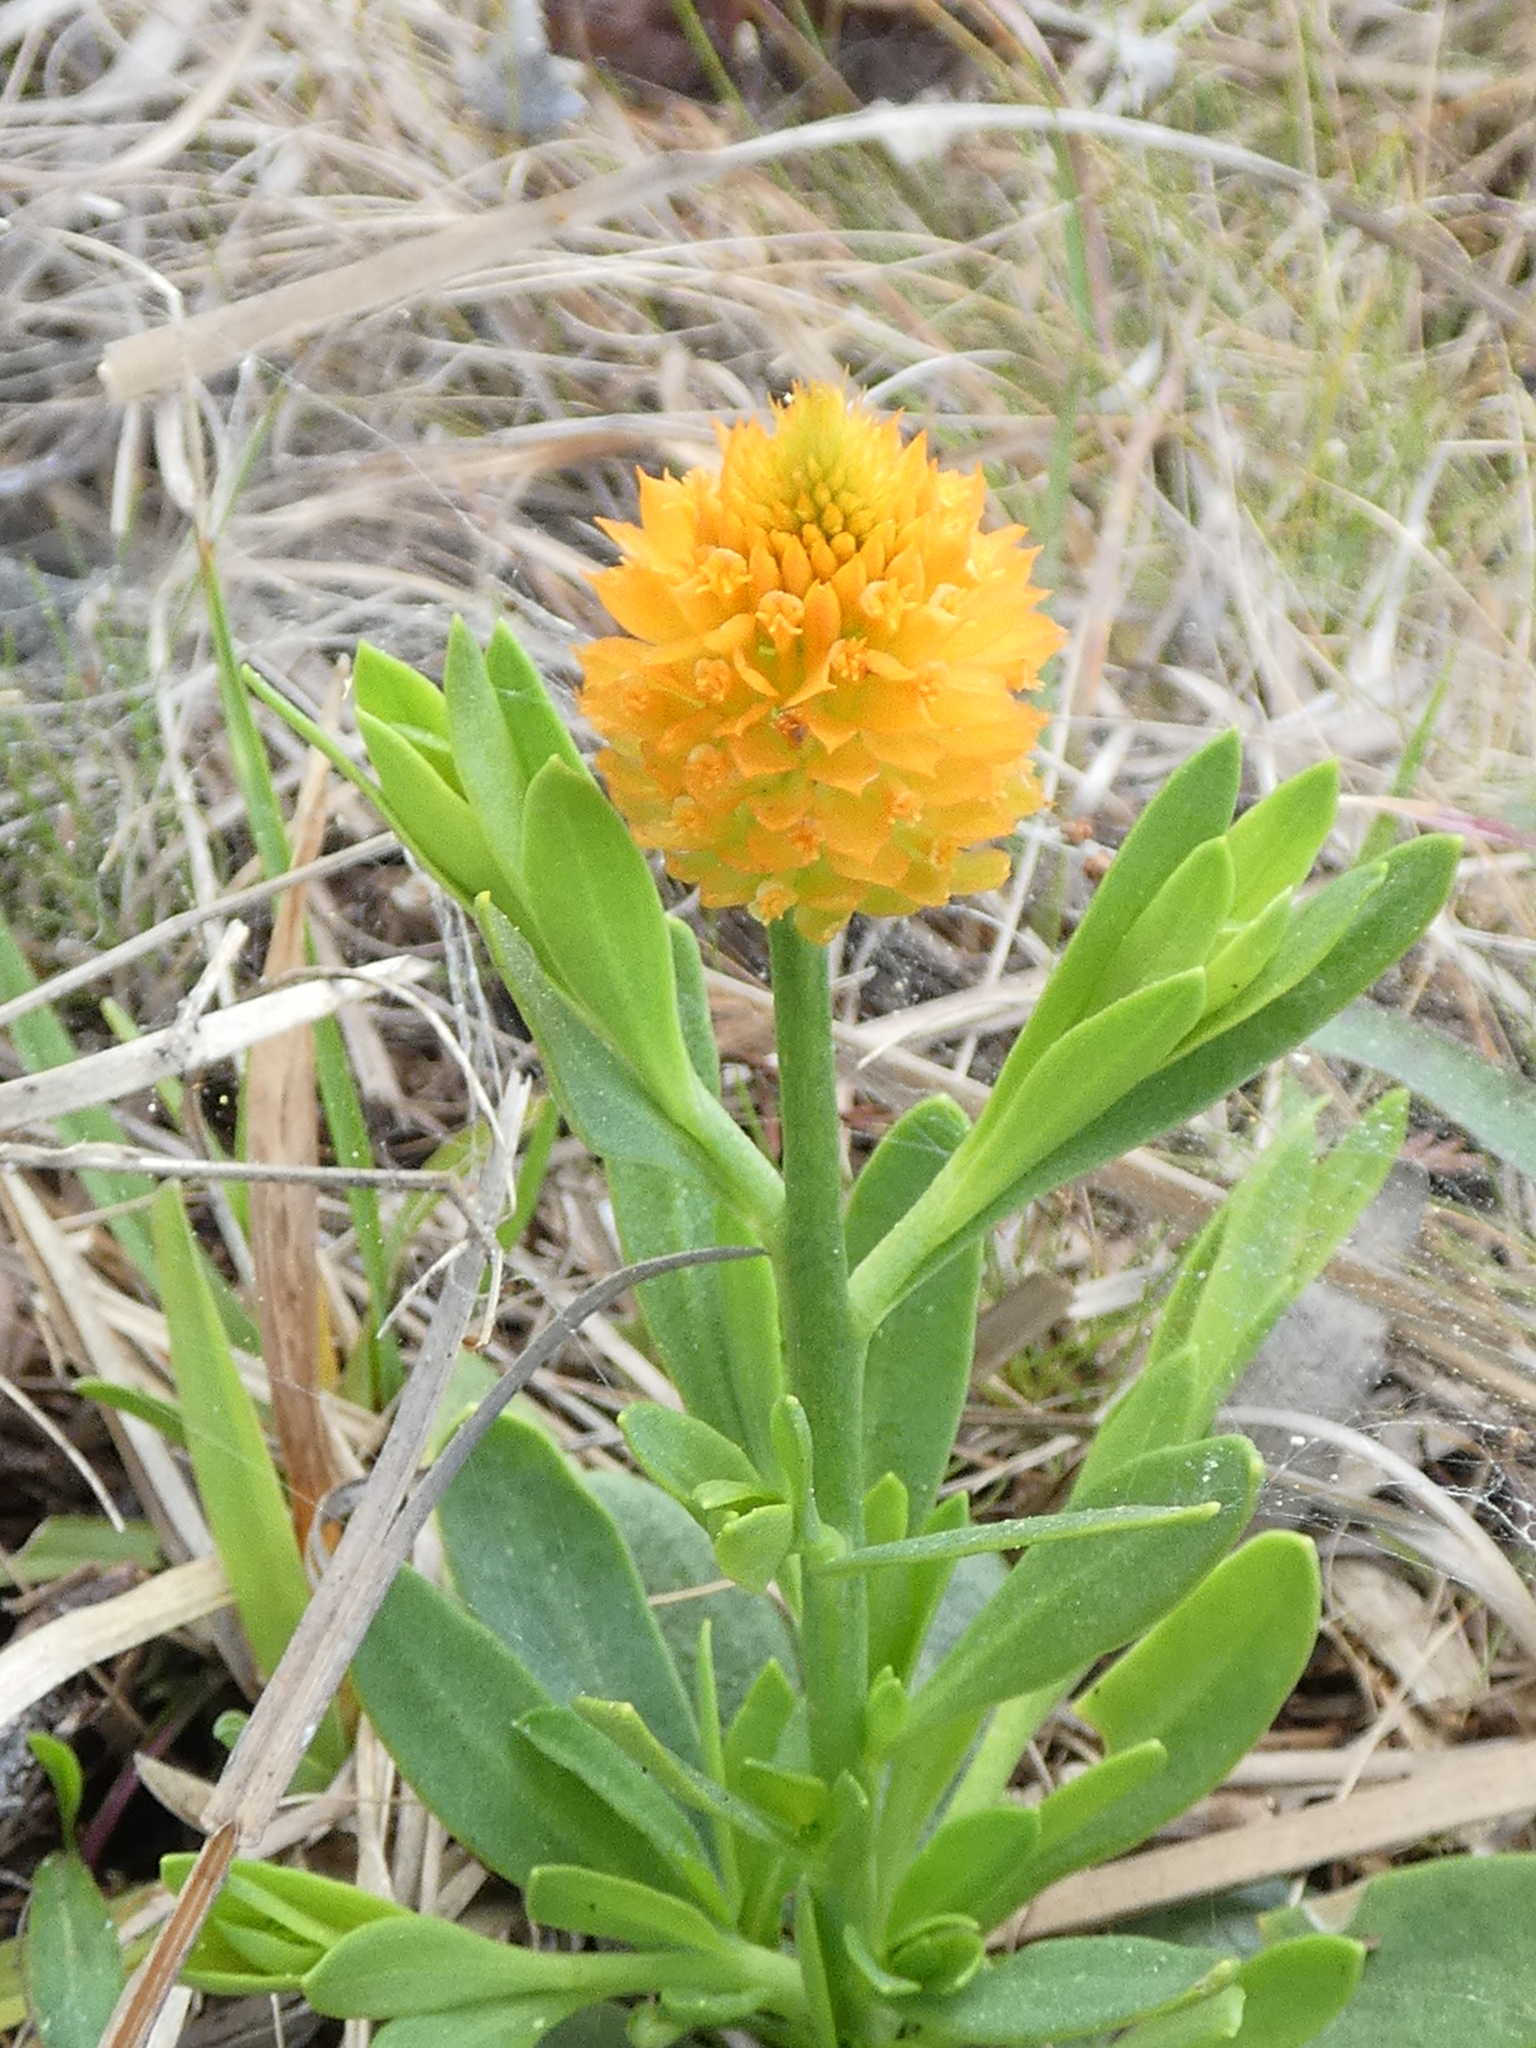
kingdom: Plantae
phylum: Tracheophyta
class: Magnoliopsida
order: Fabales
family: Polygalaceae
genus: Polygala
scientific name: Polygala lutea
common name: Orange milkwort
